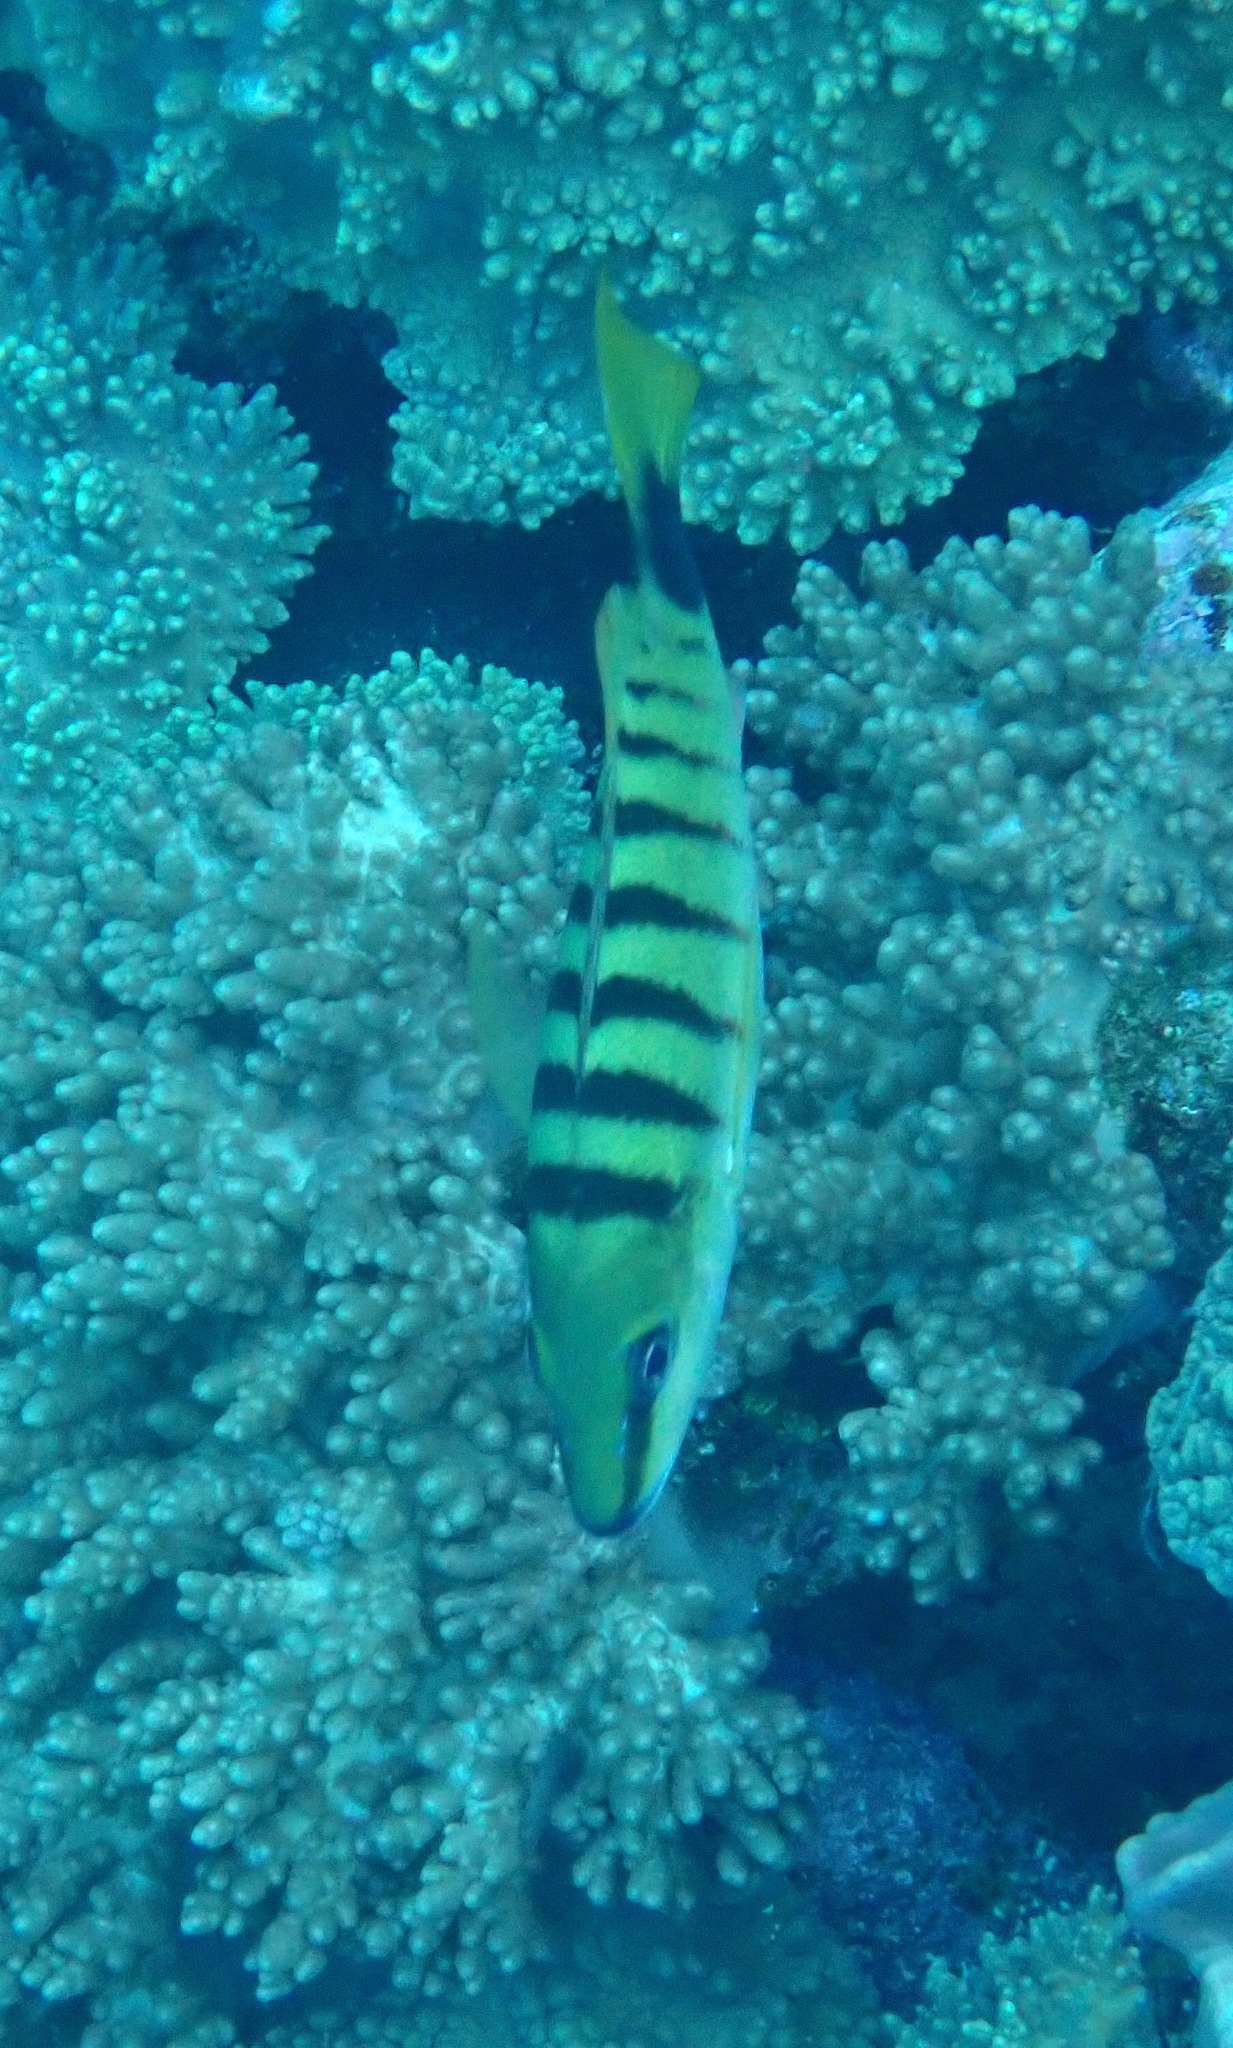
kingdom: Animalia
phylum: Chordata
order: Perciformes
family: Lutjanidae
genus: Lutjanus
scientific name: Lutjanus semicinctus
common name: Half-barred snapper
